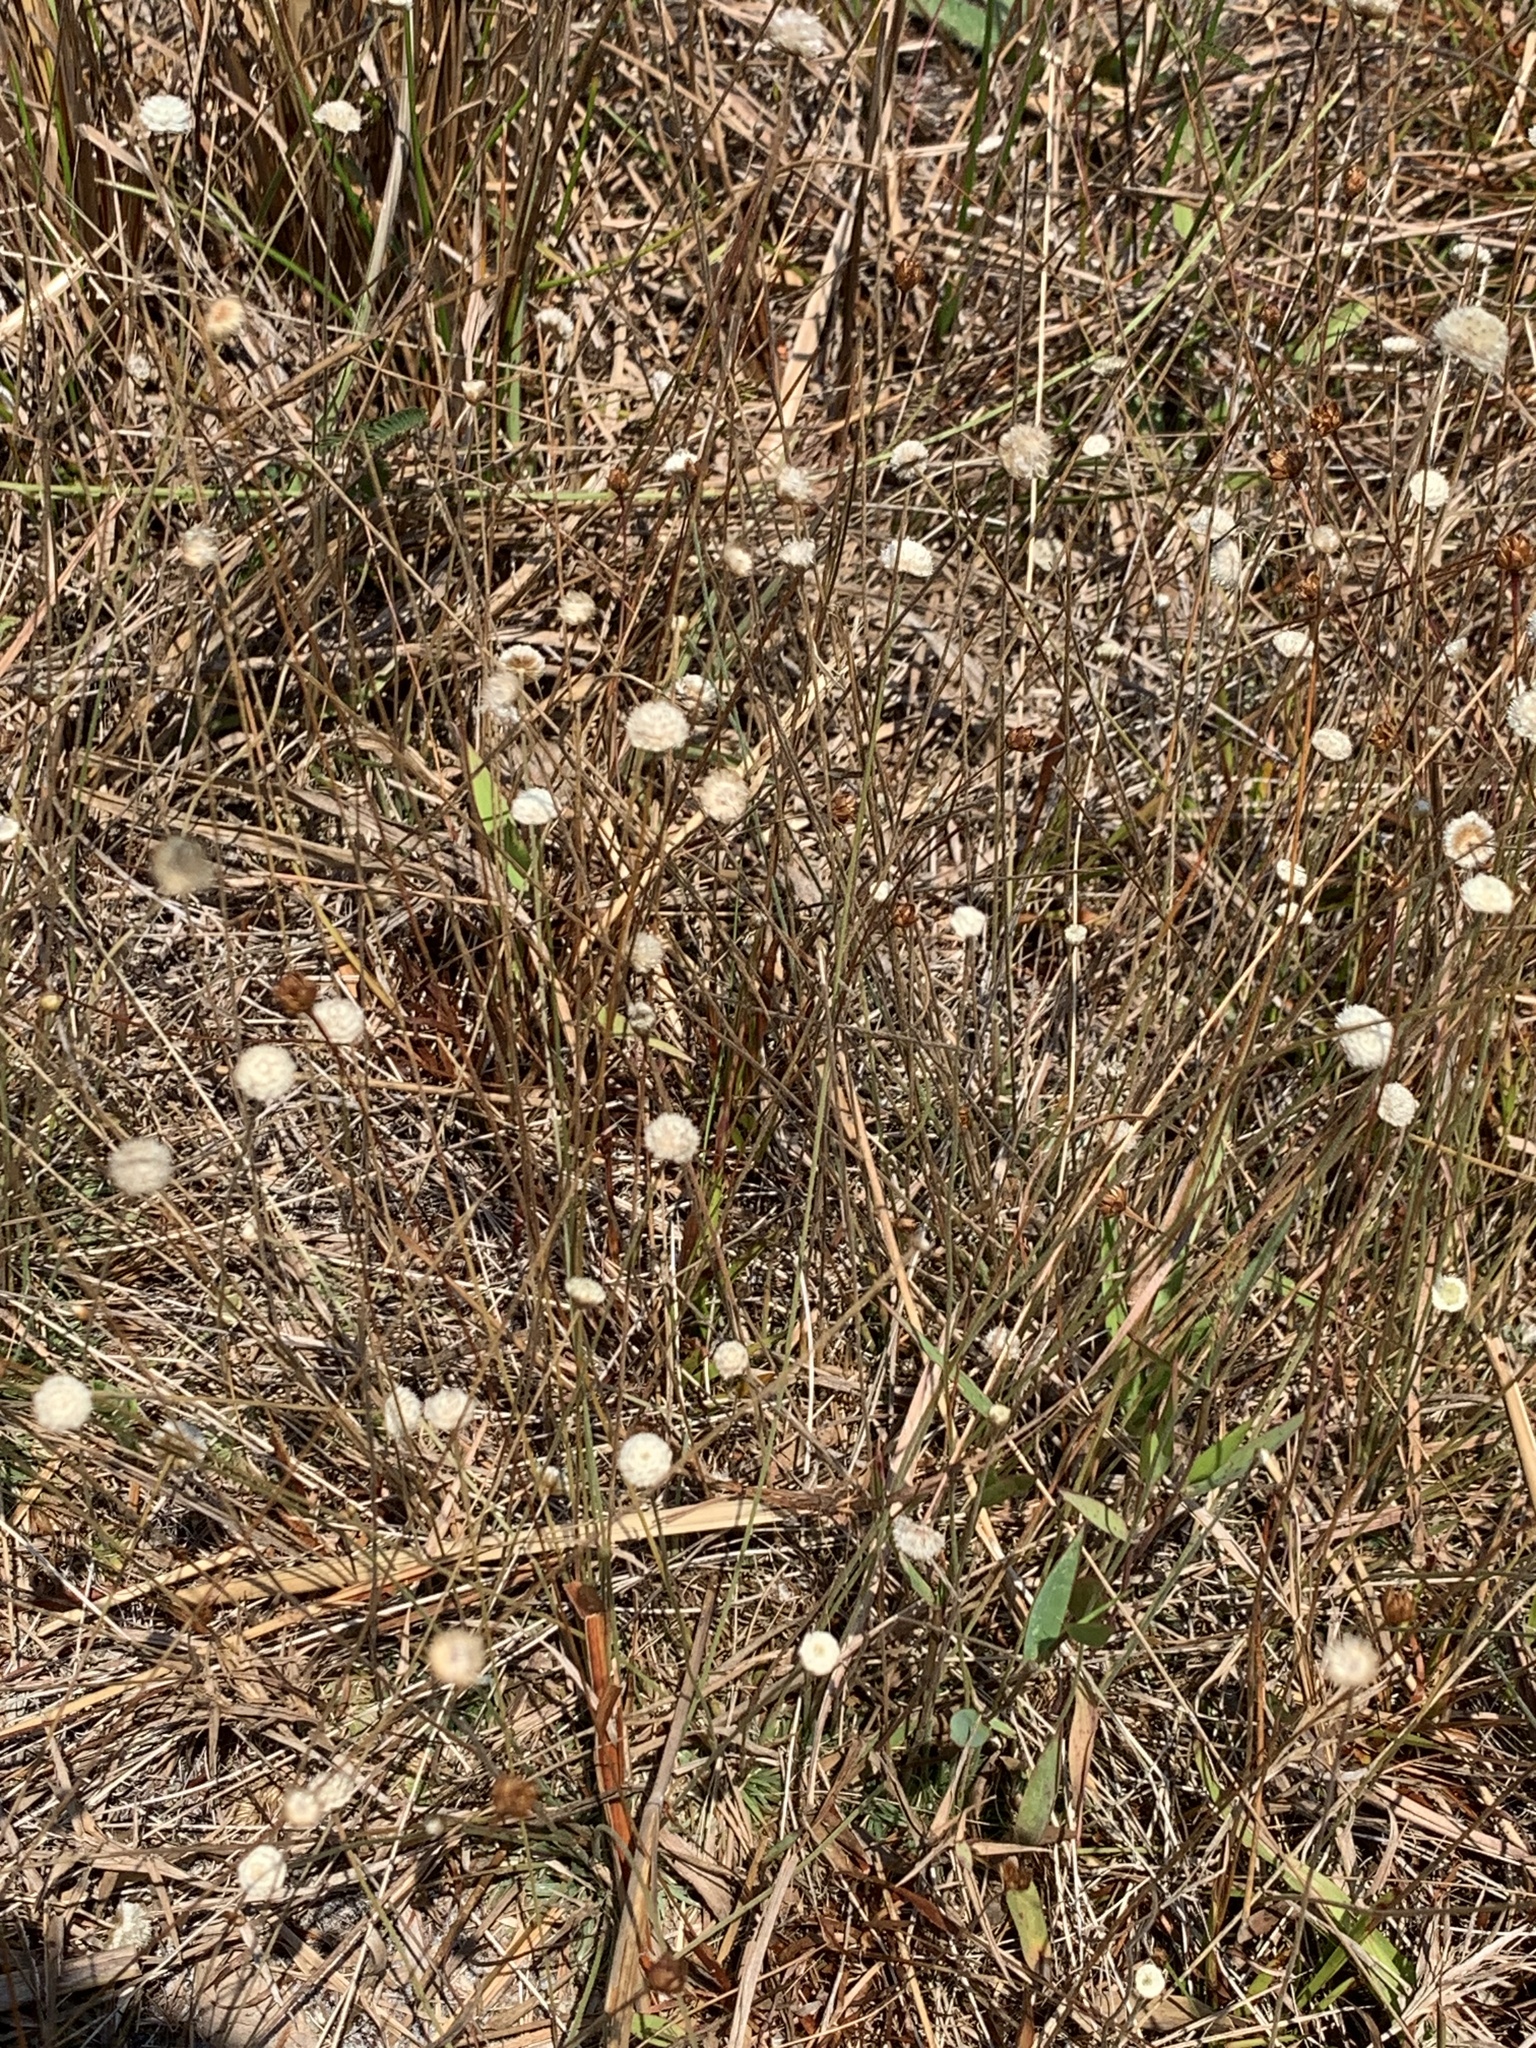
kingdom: Plantae
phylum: Tracheophyta
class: Liliopsida
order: Poales
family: Eriocaulaceae
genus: Syngonanthus
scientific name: Syngonanthus flavidulus
